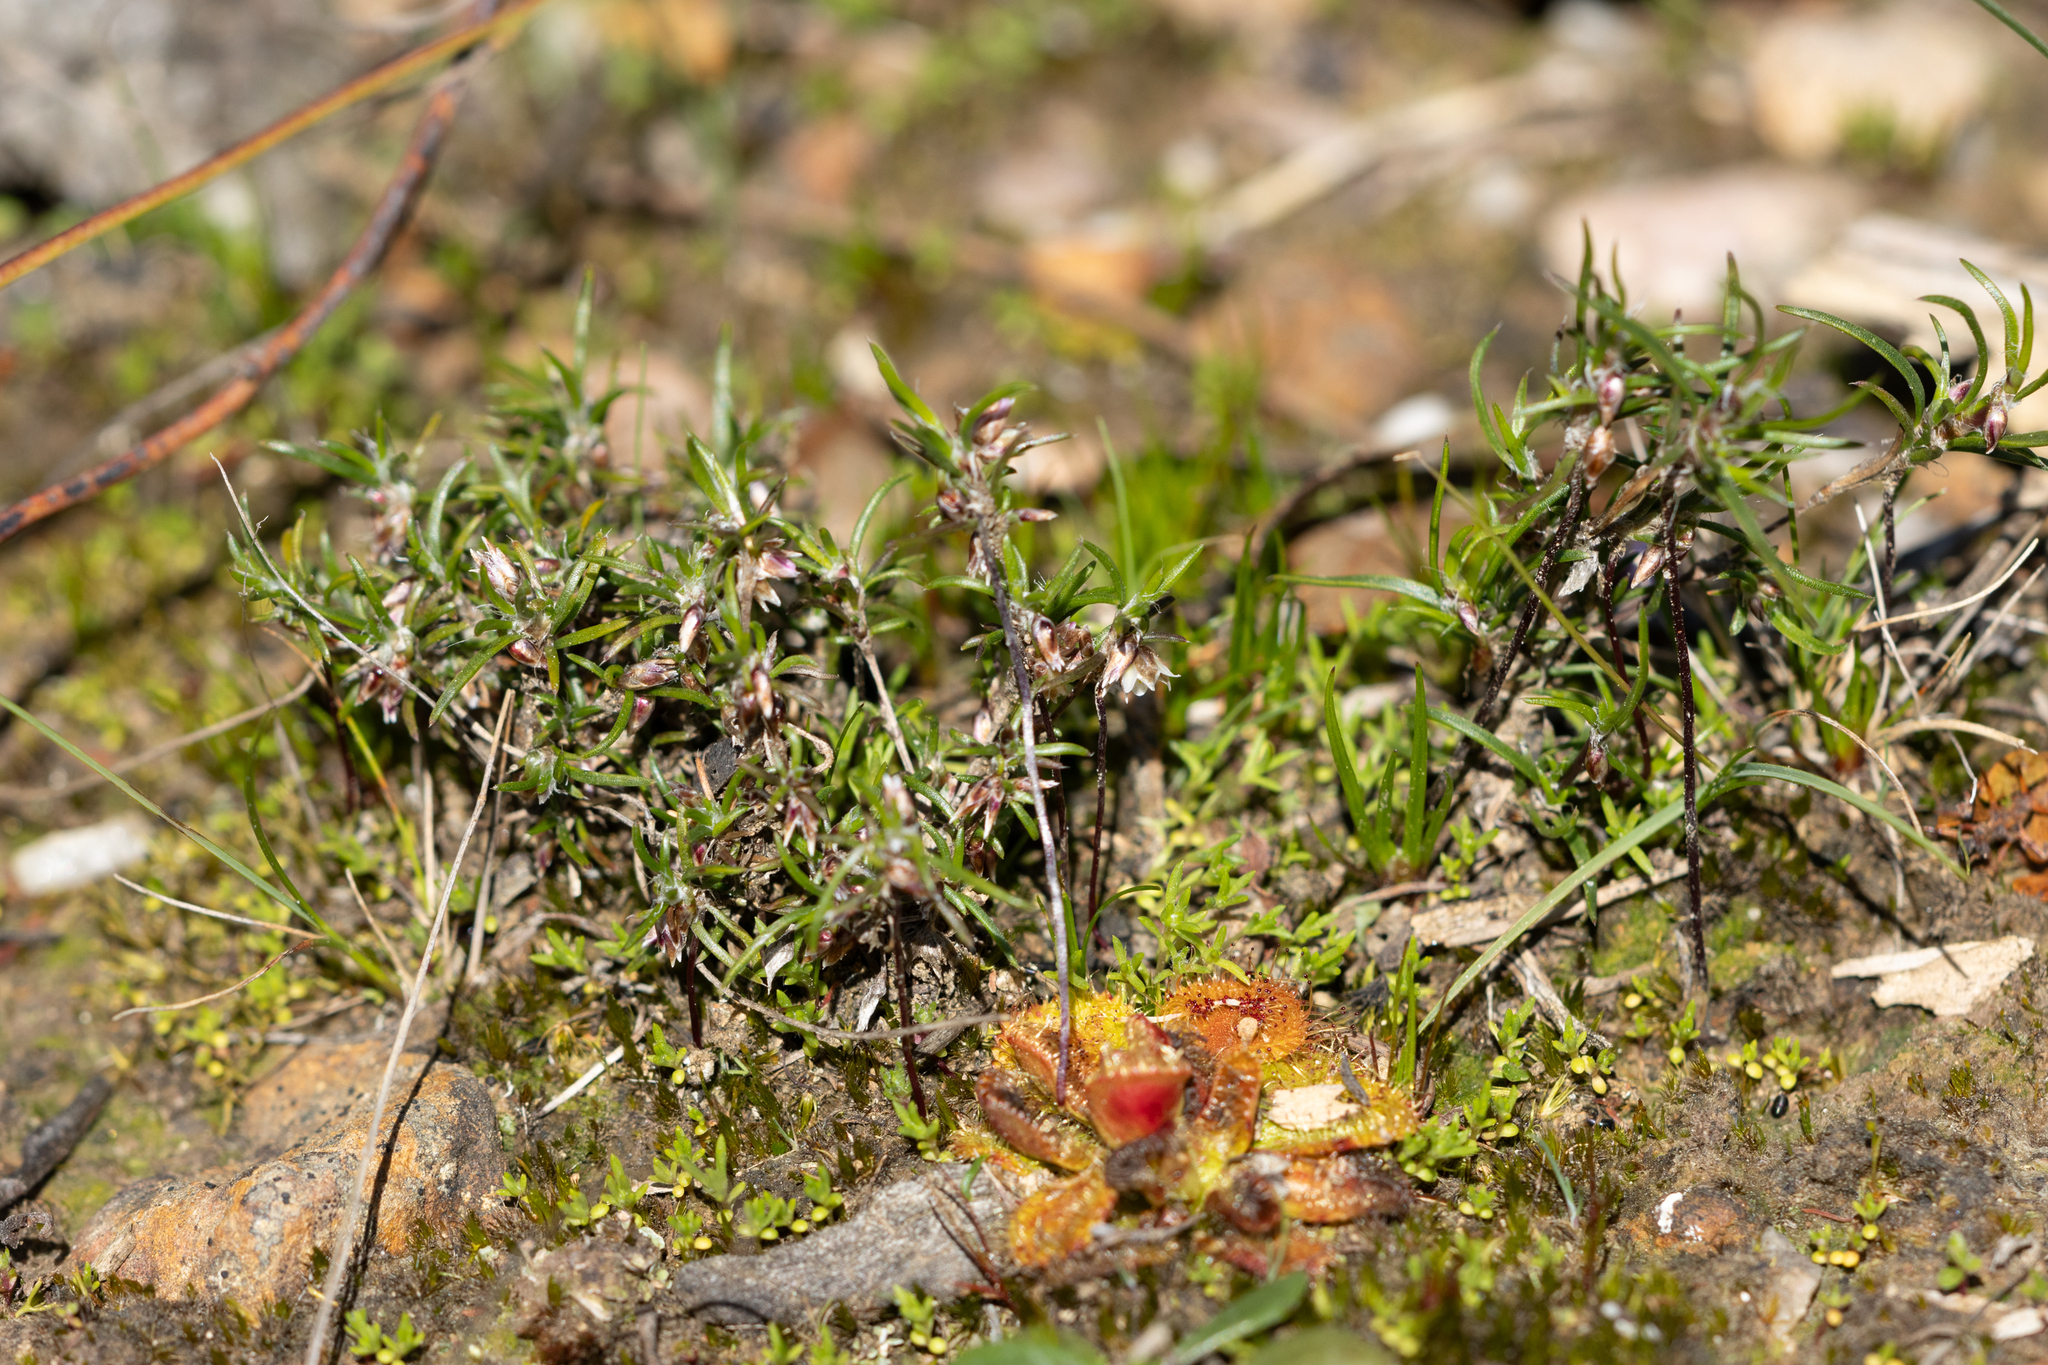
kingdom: Plantae
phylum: Tracheophyta
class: Liliopsida
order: Asparagales
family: Asparagaceae
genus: Laxmannia
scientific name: Laxmannia orientalis
